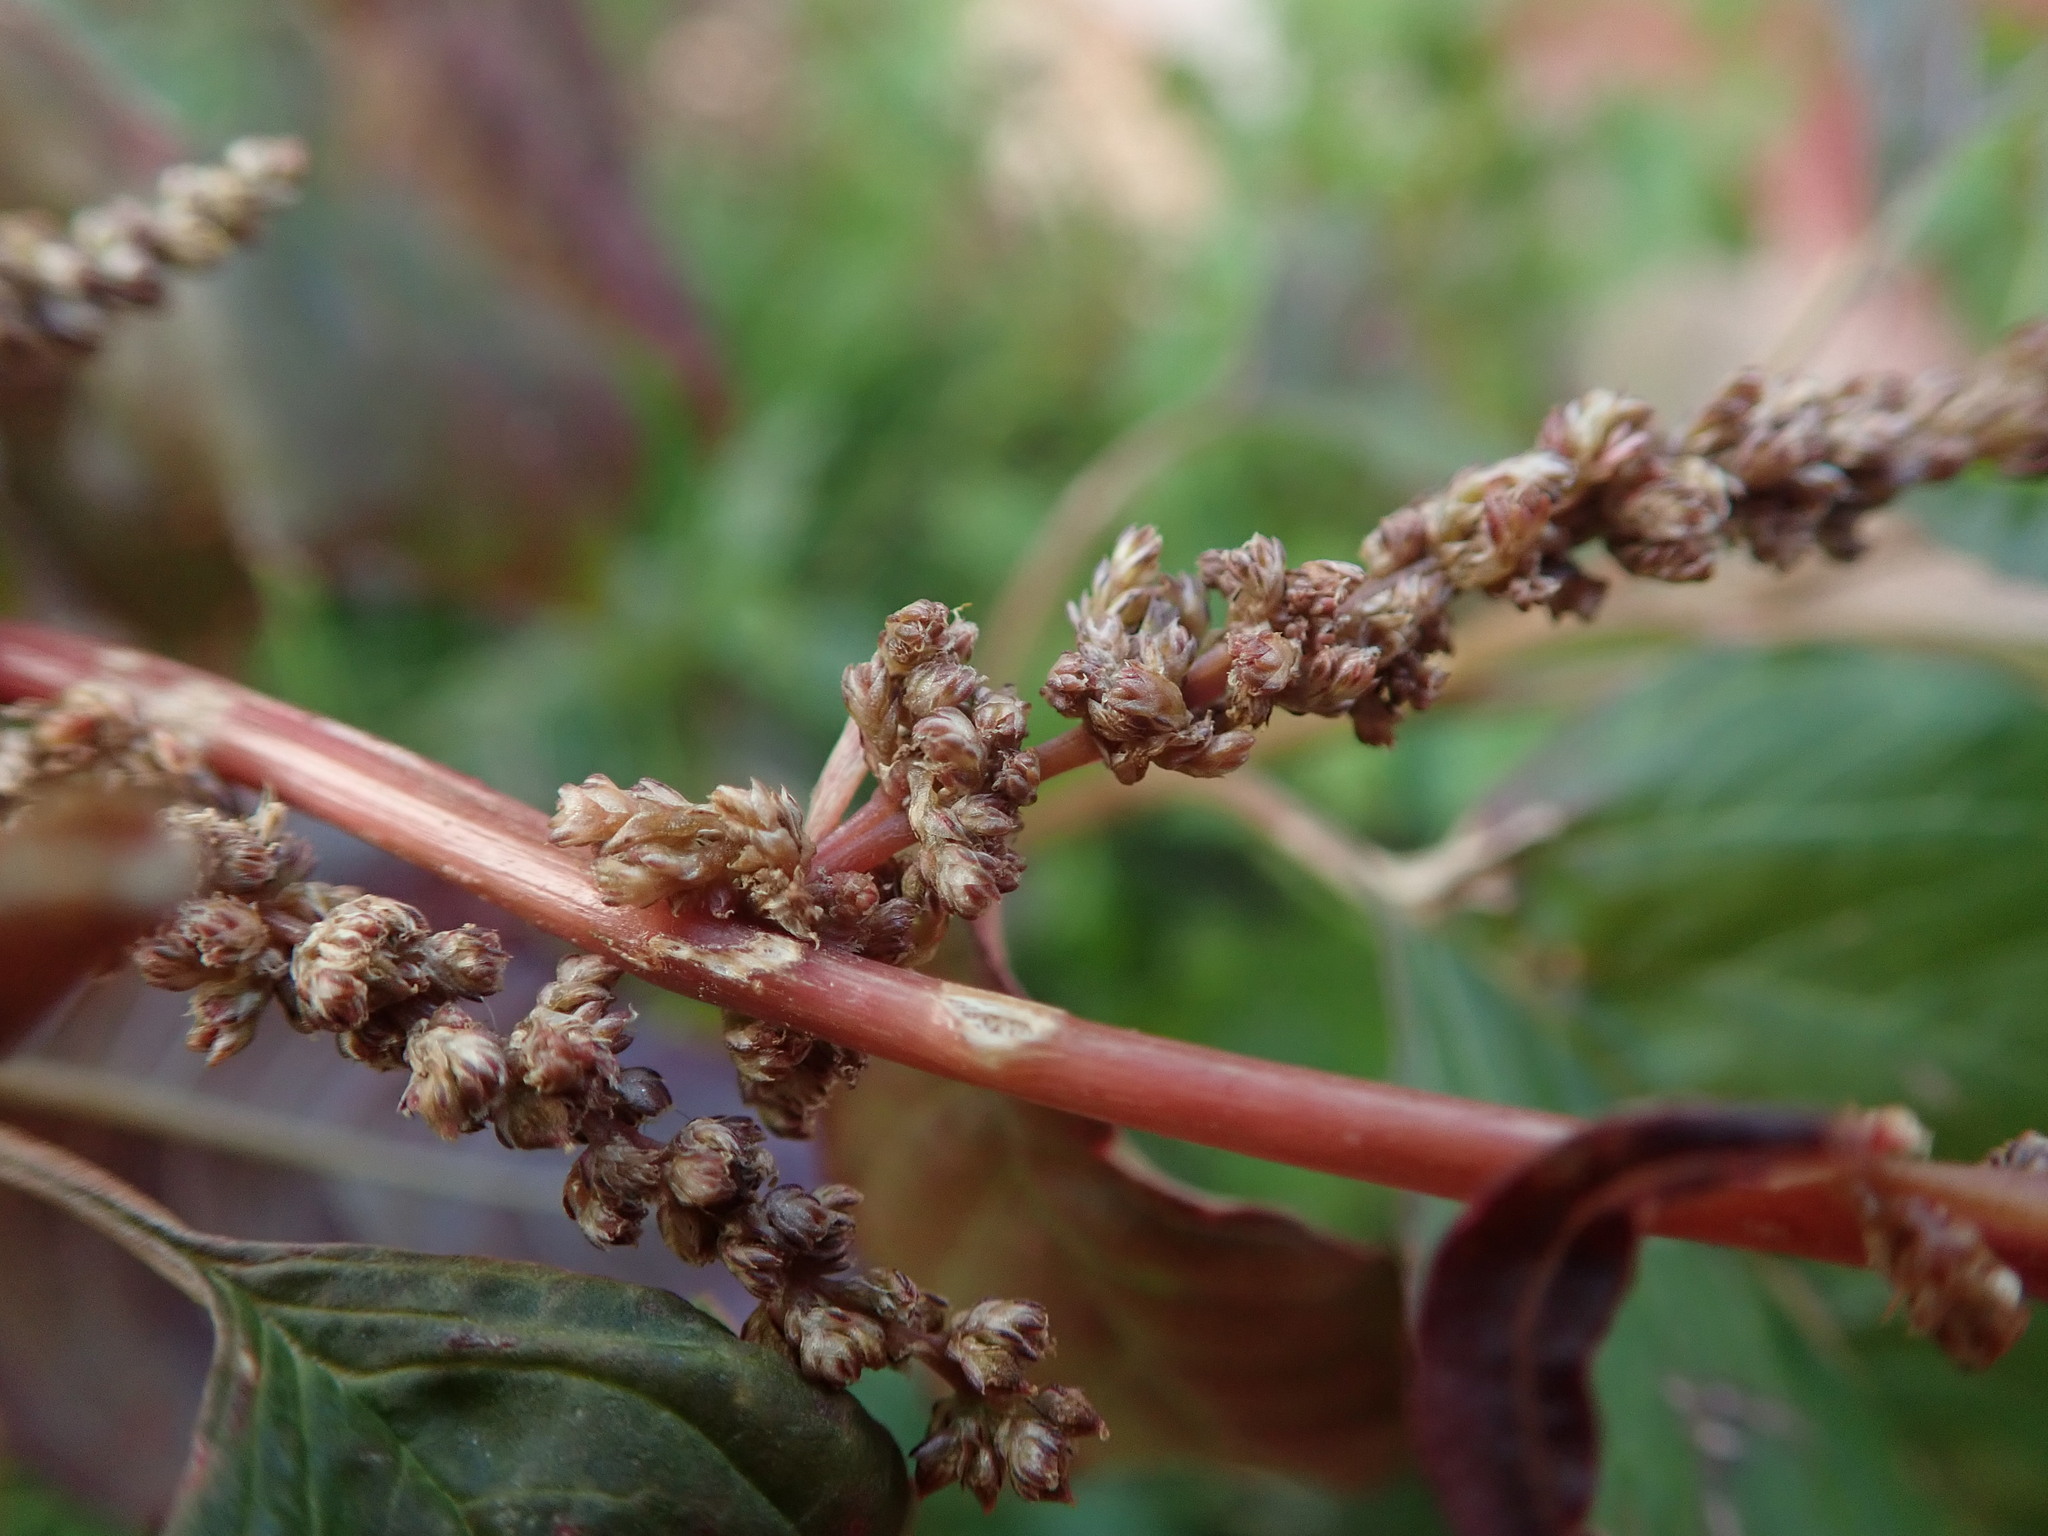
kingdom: Plantae
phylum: Tracheophyta
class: Magnoliopsida
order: Caryophyllales
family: Amaranthaceae
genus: Amaranthus
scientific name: Amaranthus viridis
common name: Slender amaranth
